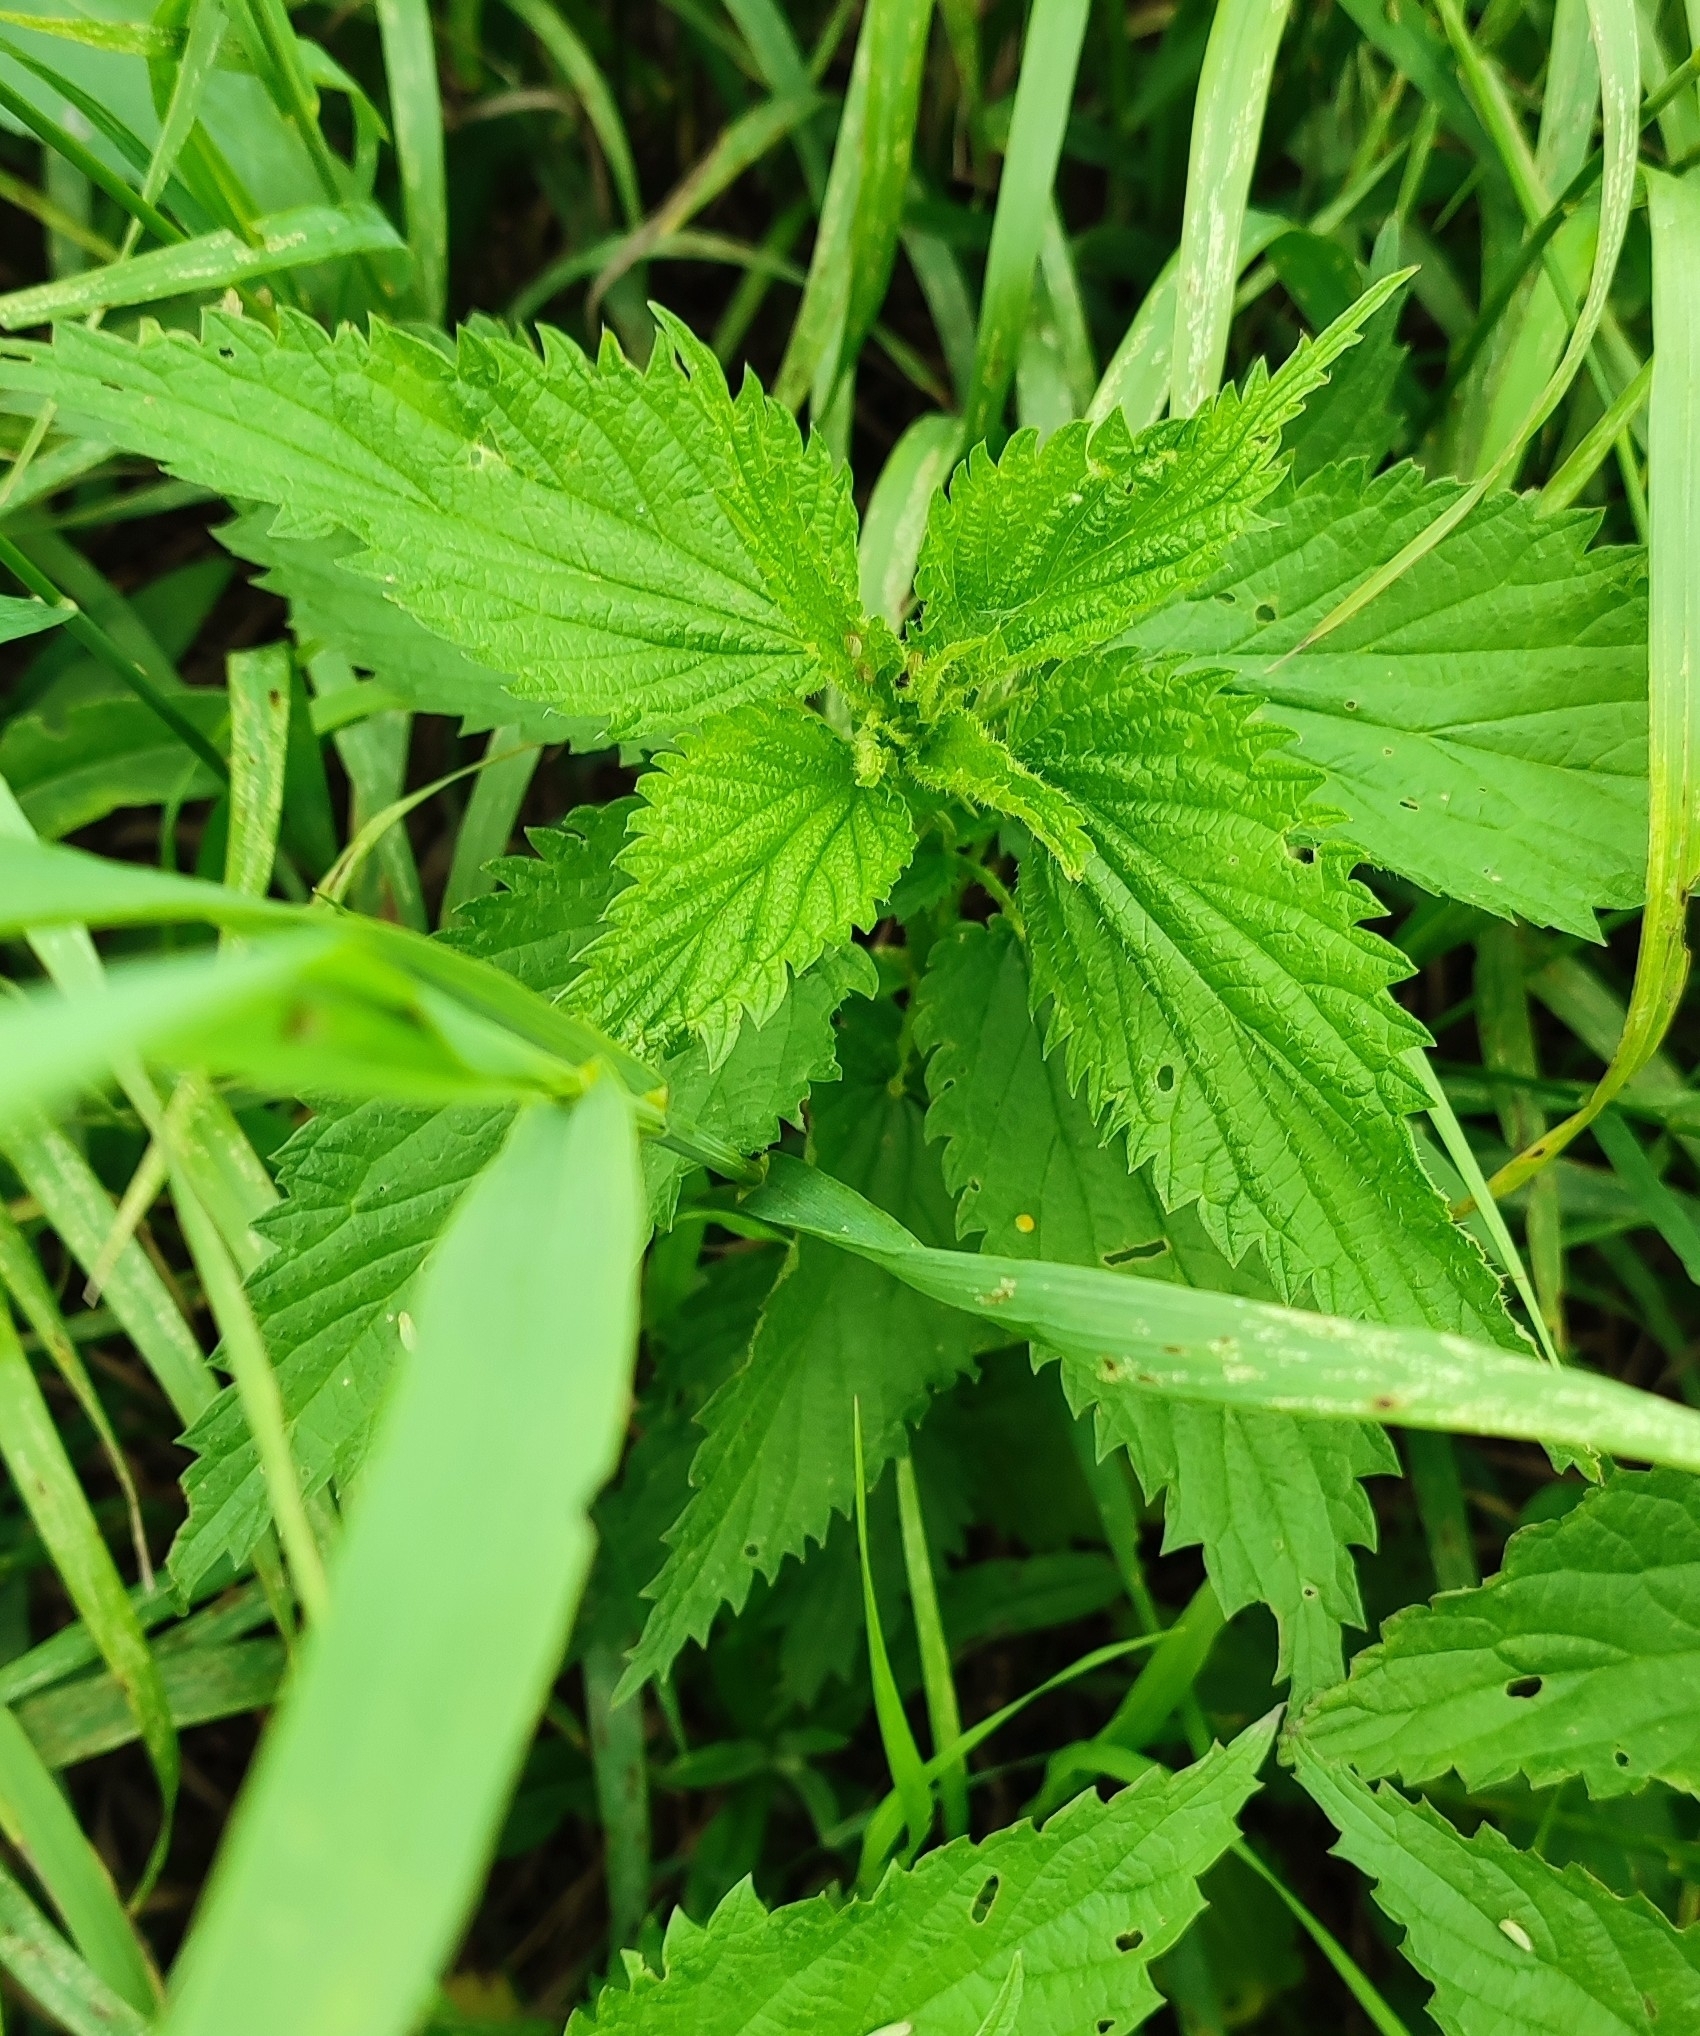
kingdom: Plantae
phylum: Tracheophyta
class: Magnoliopsida
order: Rosales
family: Urticaceae
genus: Urtica
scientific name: Urtica dioica
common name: Common nettle
